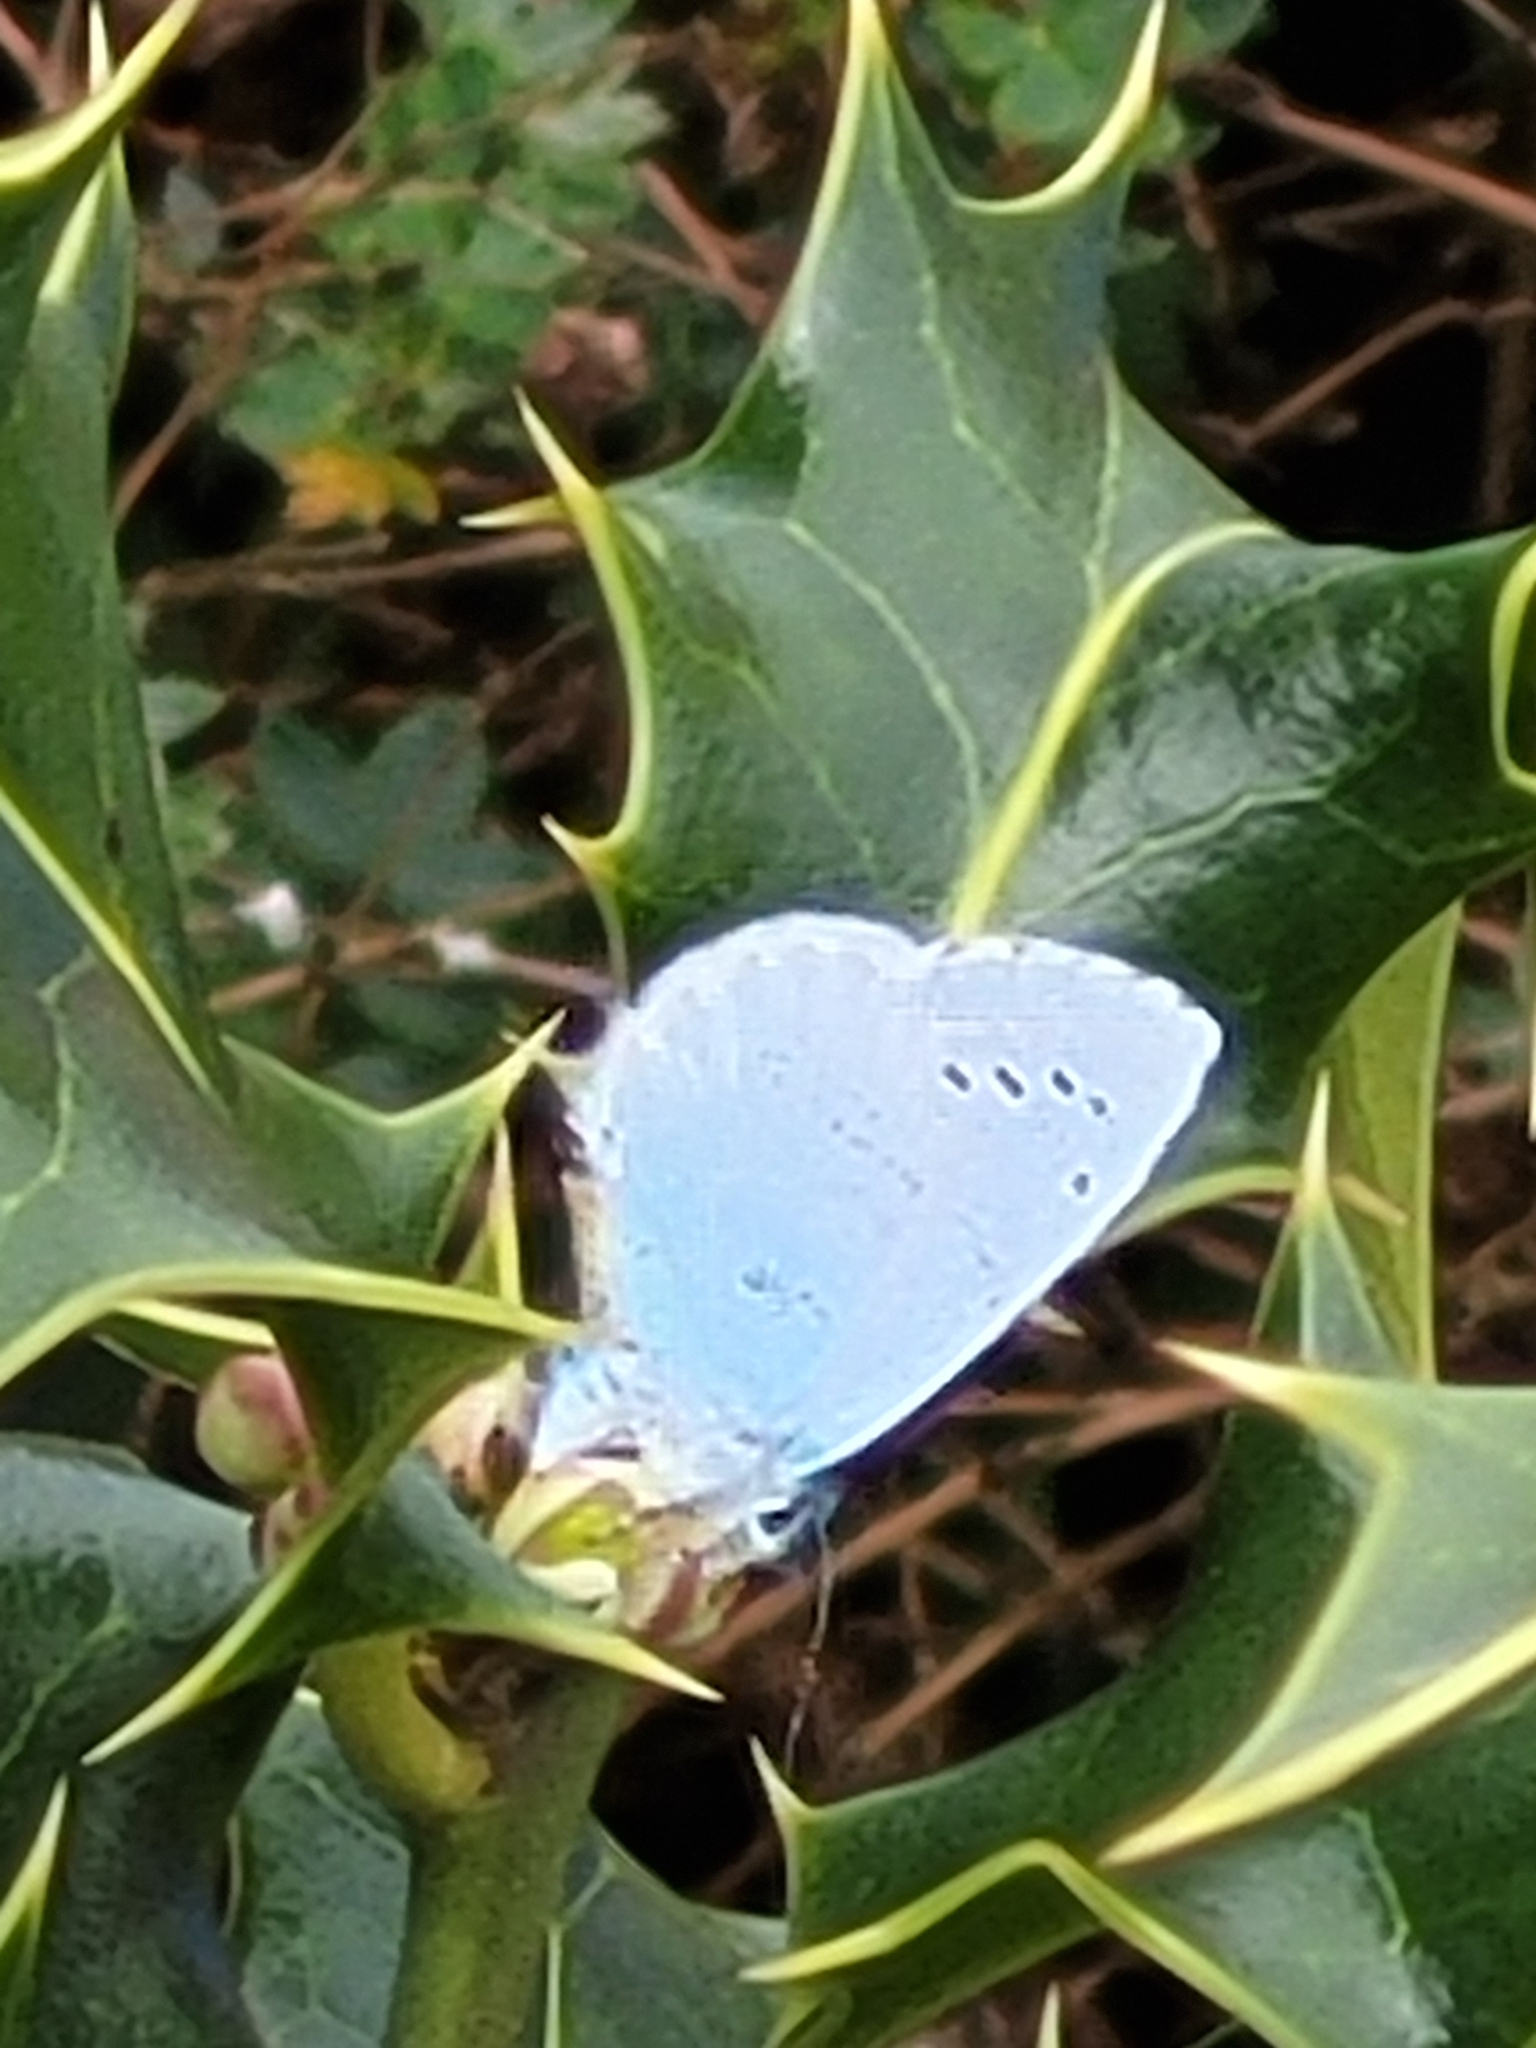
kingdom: Animalia
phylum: Arthropoda
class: Insecta
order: Lepidoptera
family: Lycaenidae
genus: Celastrina
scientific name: Celastrina argiolus
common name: Holly blue
